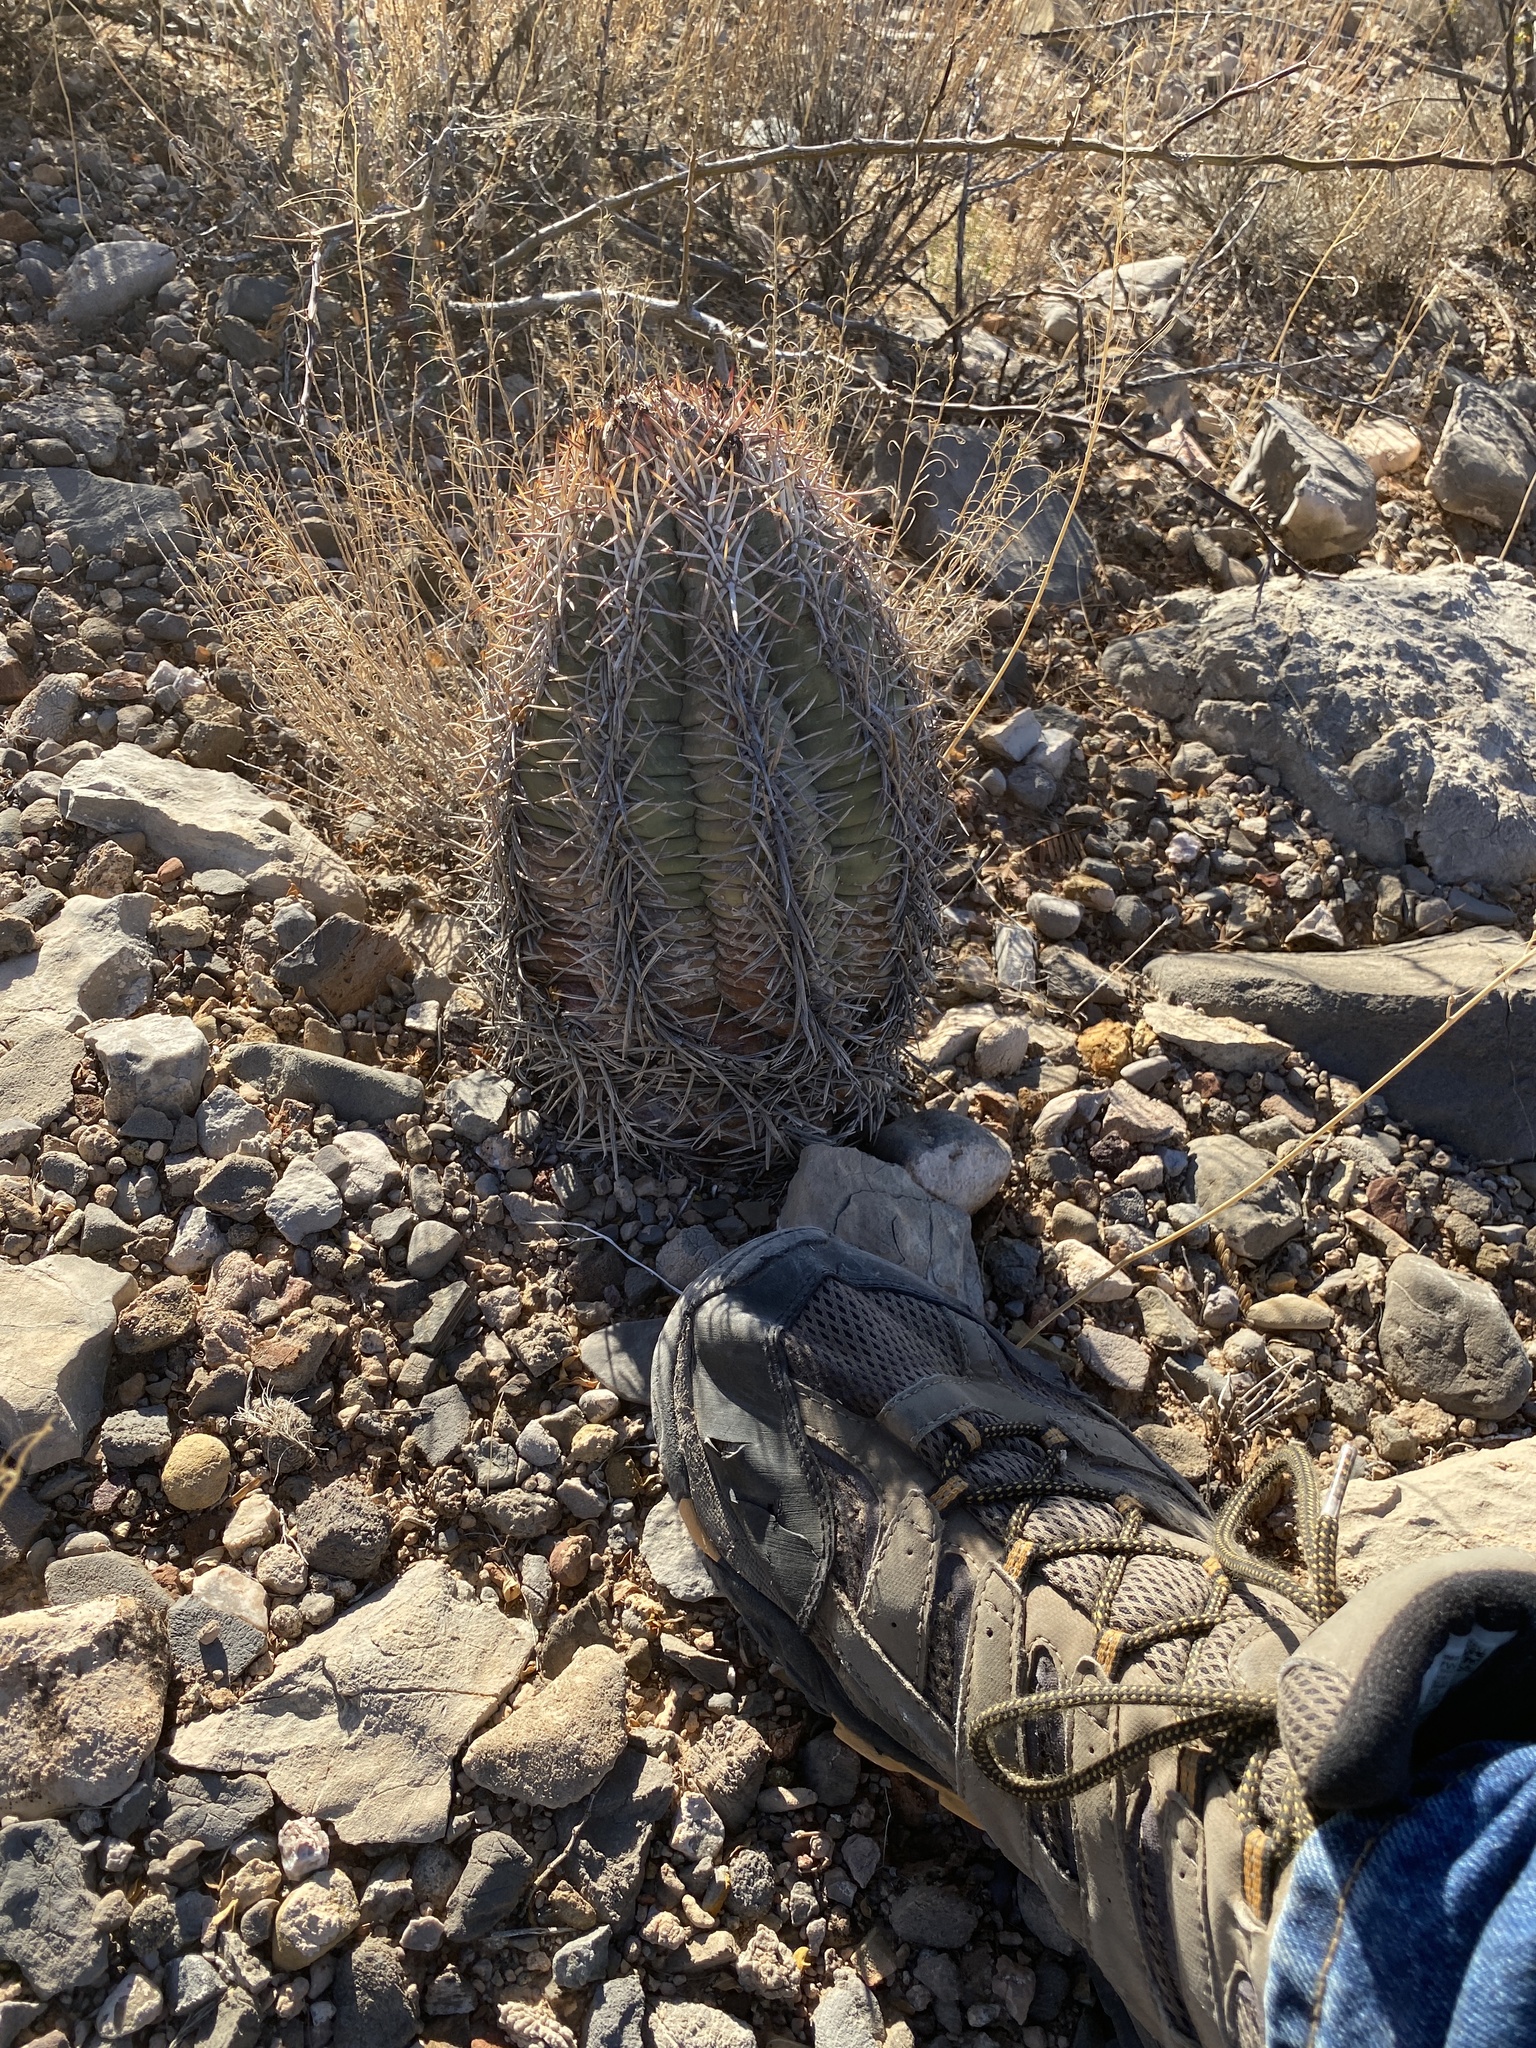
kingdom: Plantae
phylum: Tracheophyta
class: Magnoliopsida
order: Caryophyllales
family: Cactaceae
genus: Echinocactus
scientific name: Echinocactus horizonthalonius
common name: Devilshead
